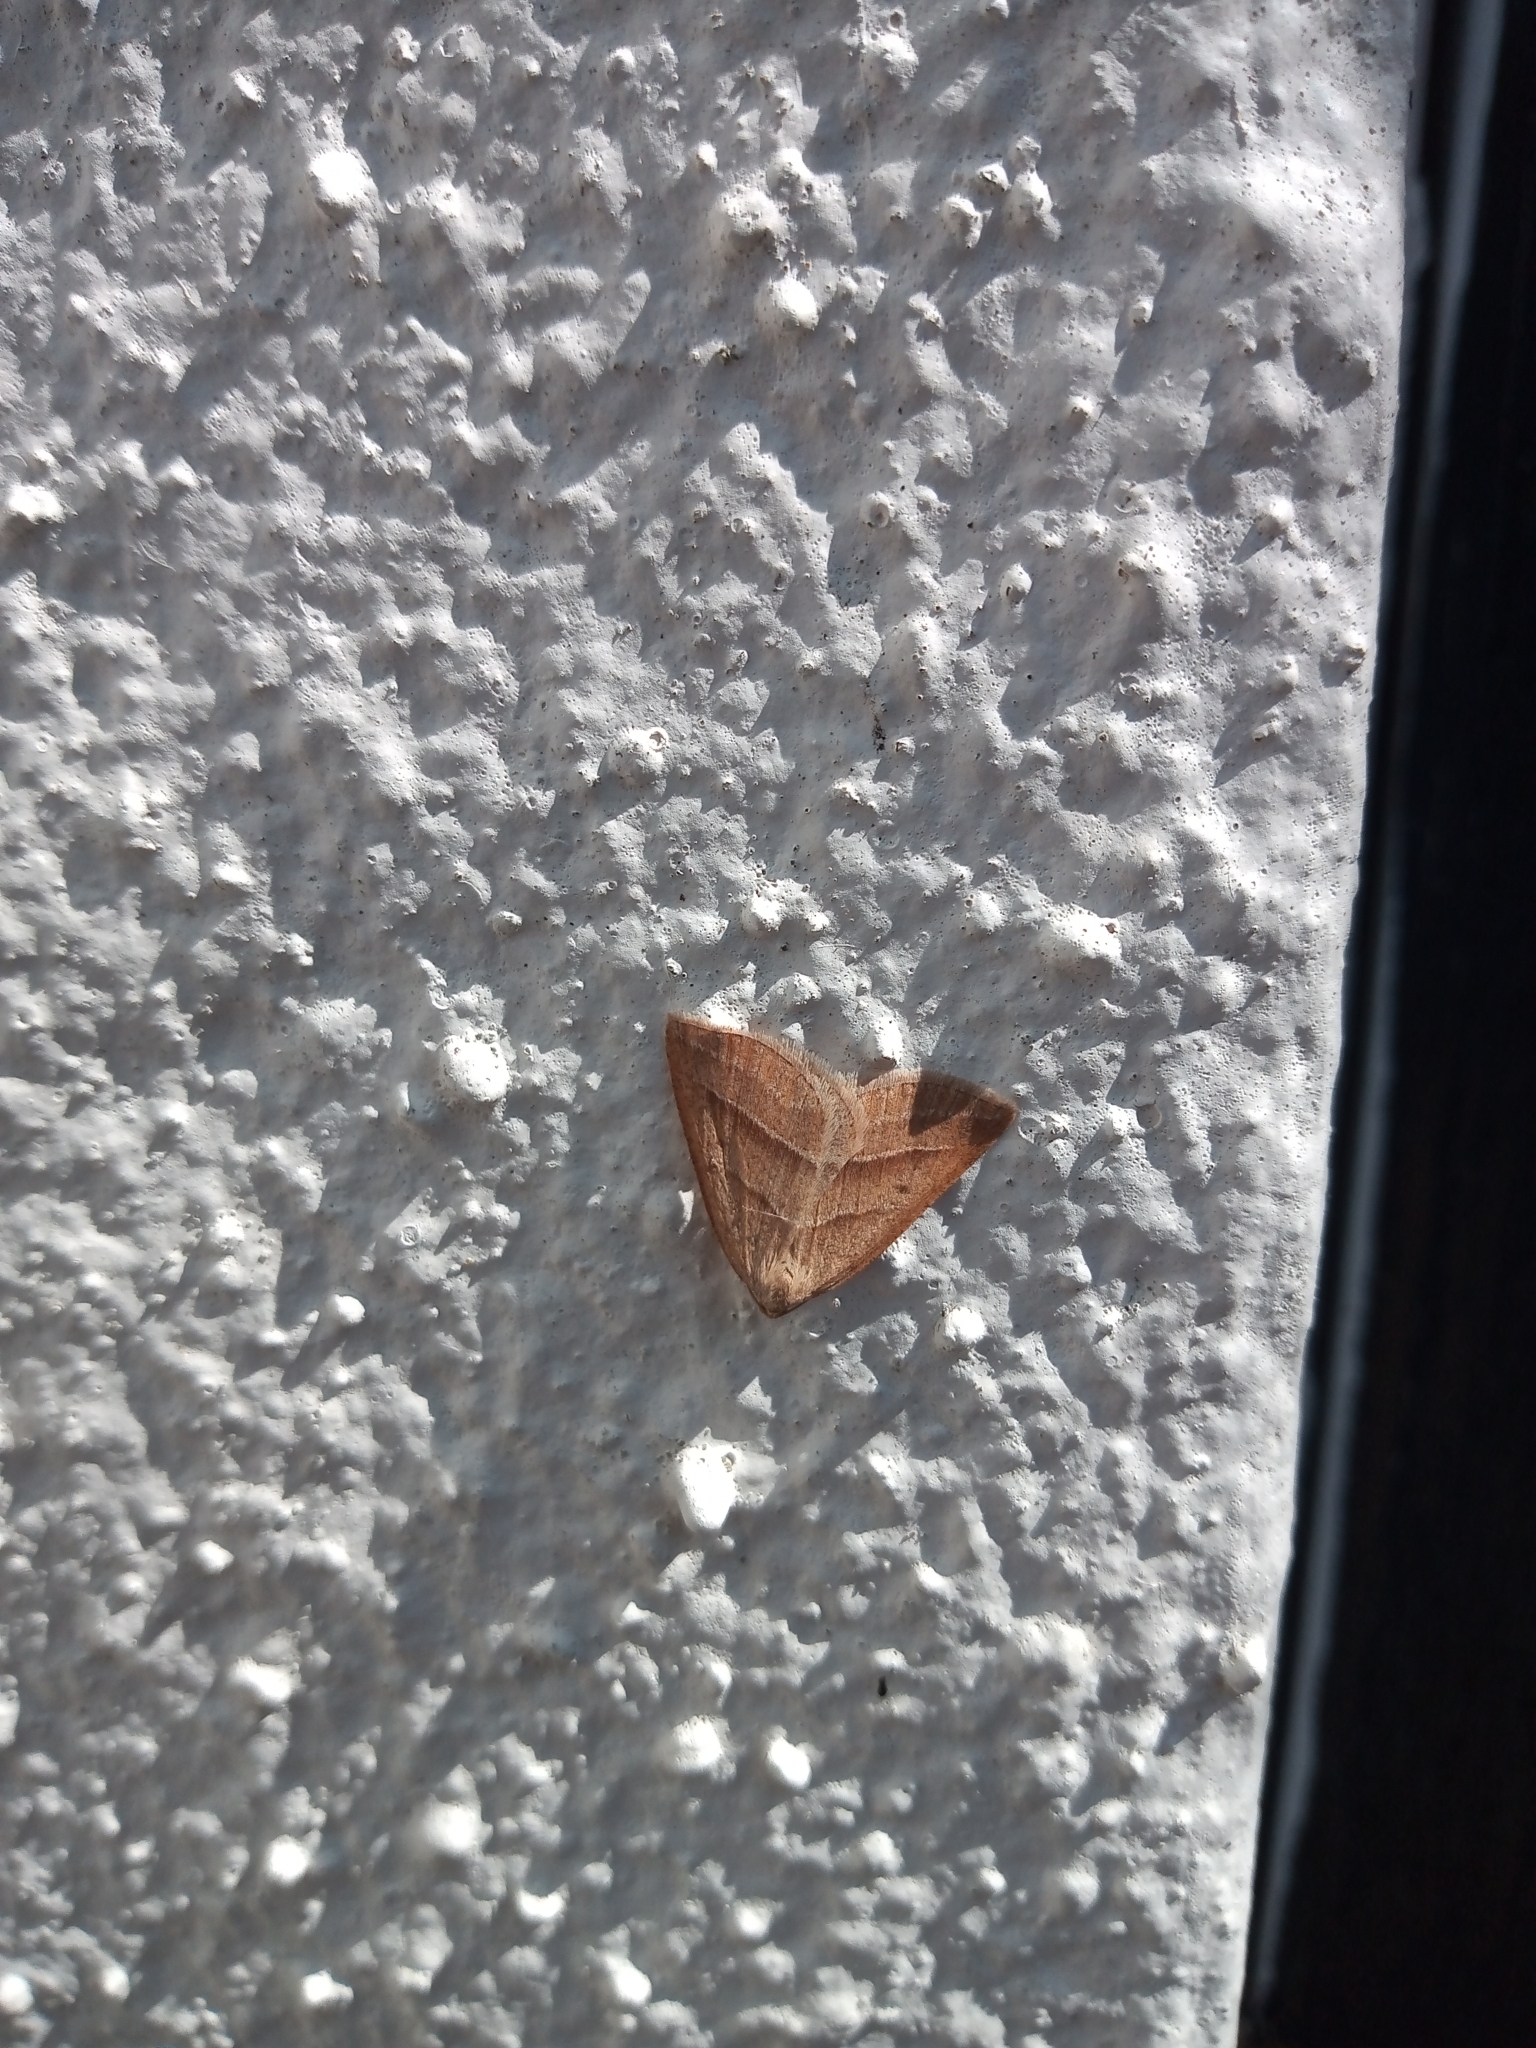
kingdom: Animalia
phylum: Arthropoda
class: Insecta
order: Lepidoptera
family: Pterophoridae
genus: Pterophorus
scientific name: Pterophorus Petrophora chlorosata
